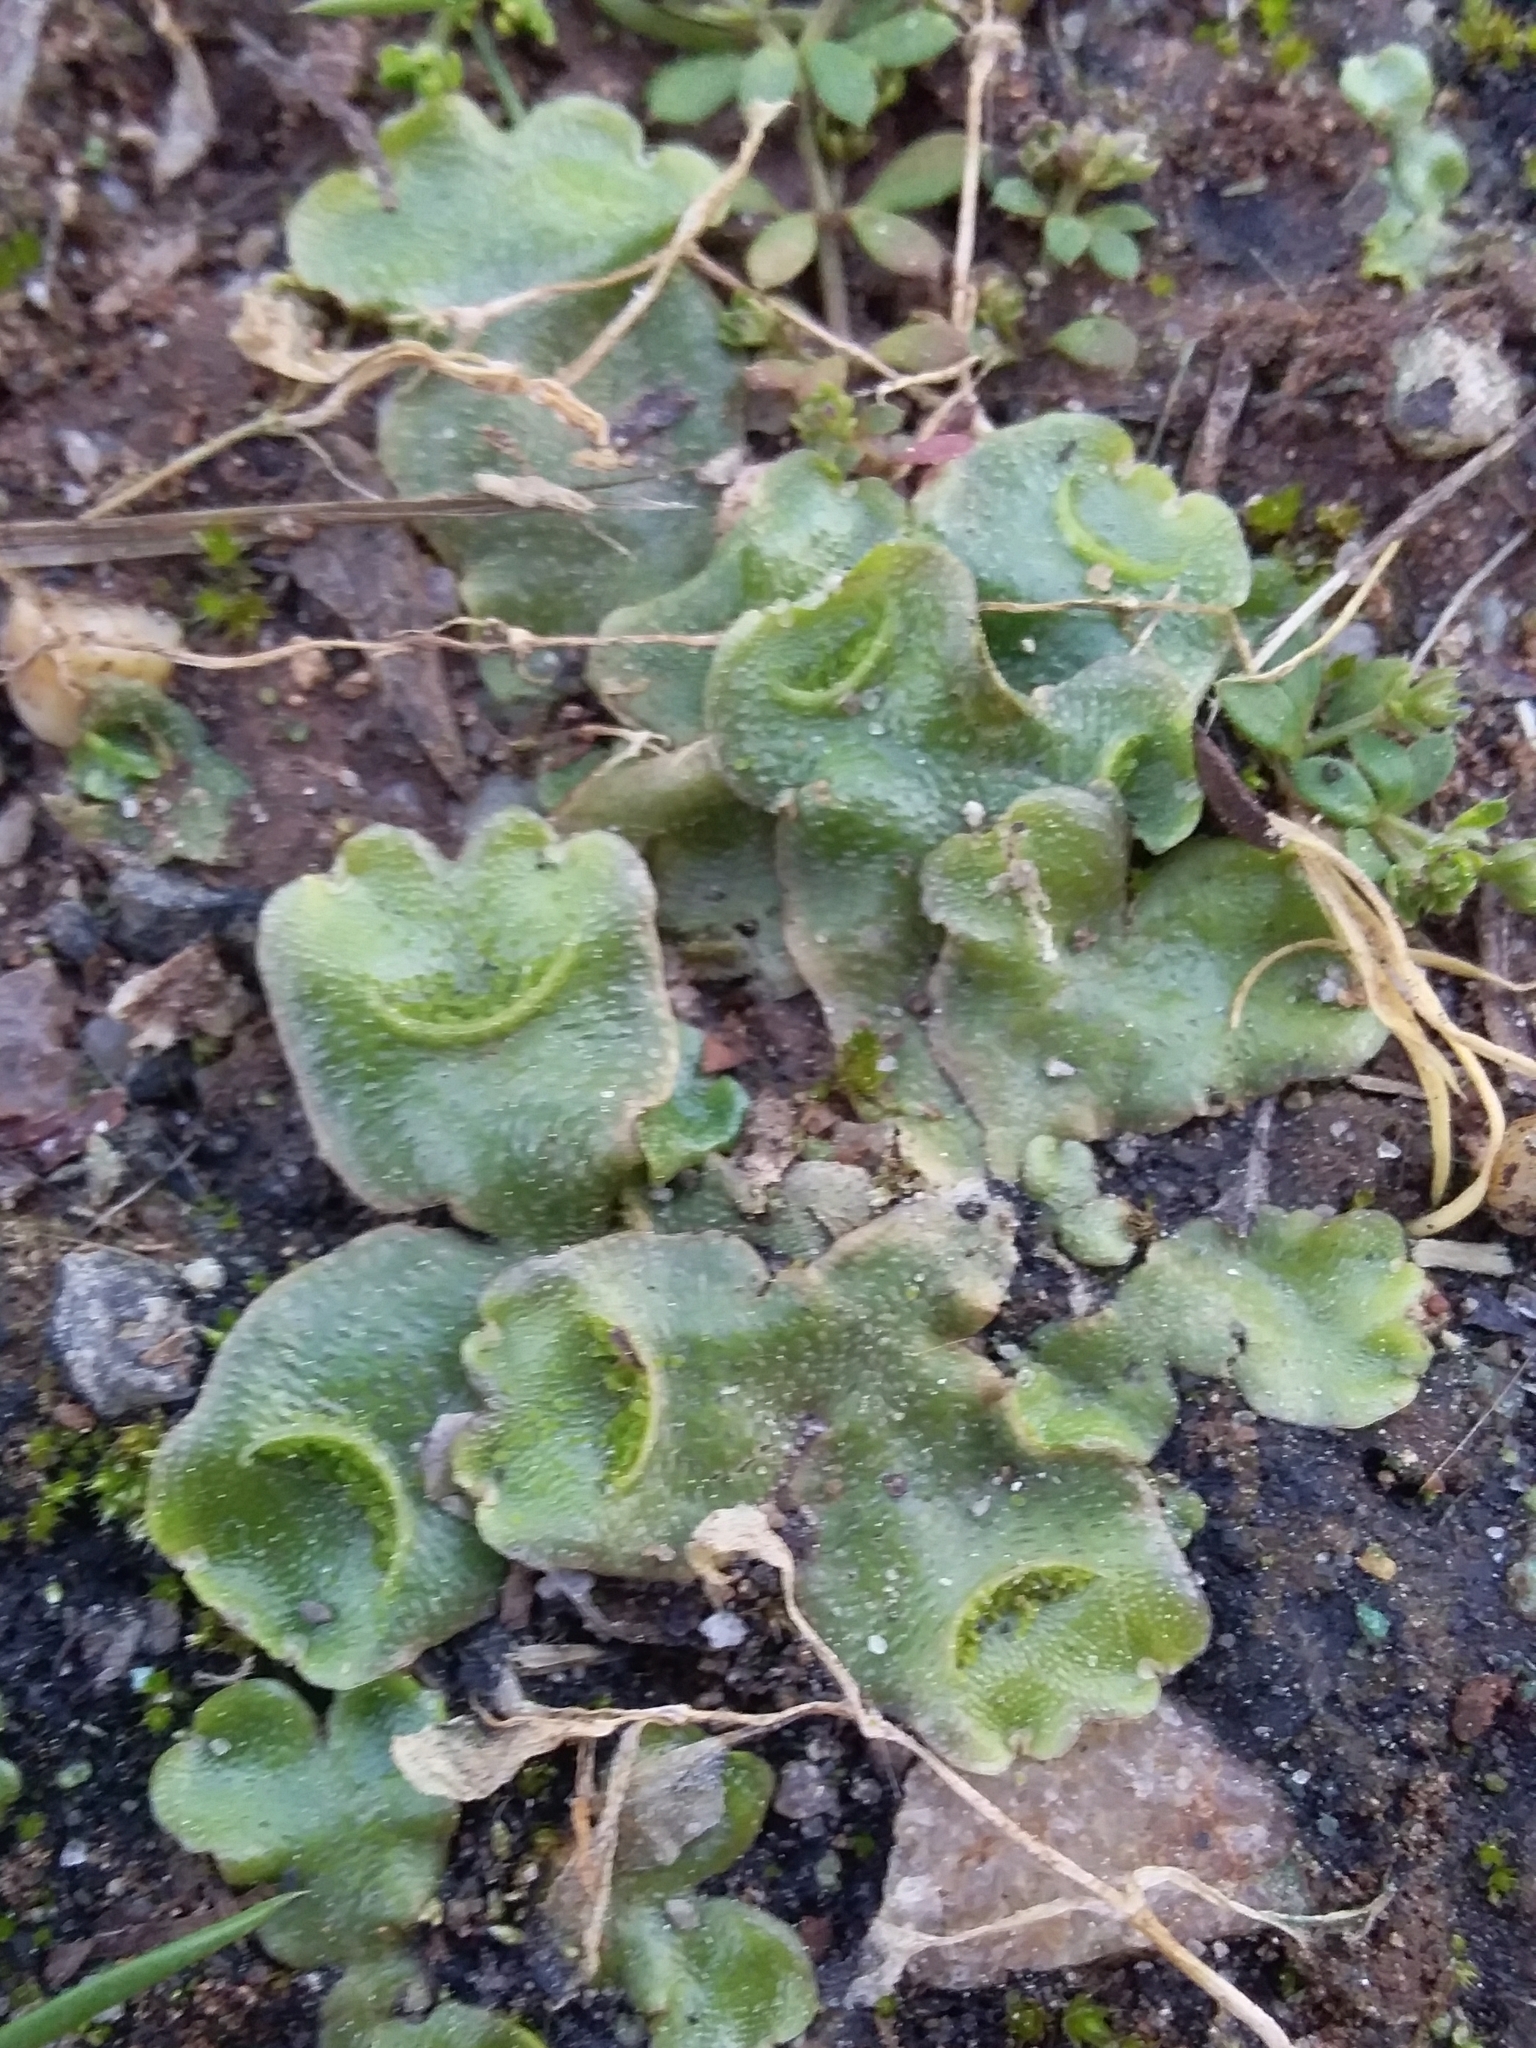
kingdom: Plantae
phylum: Marchantiophyta
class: Marchantiopsida
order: Lunulariales
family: Lunulariaceae
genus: Lunularia
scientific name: Lunularia cruciata
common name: Crescent-cup liverwort
